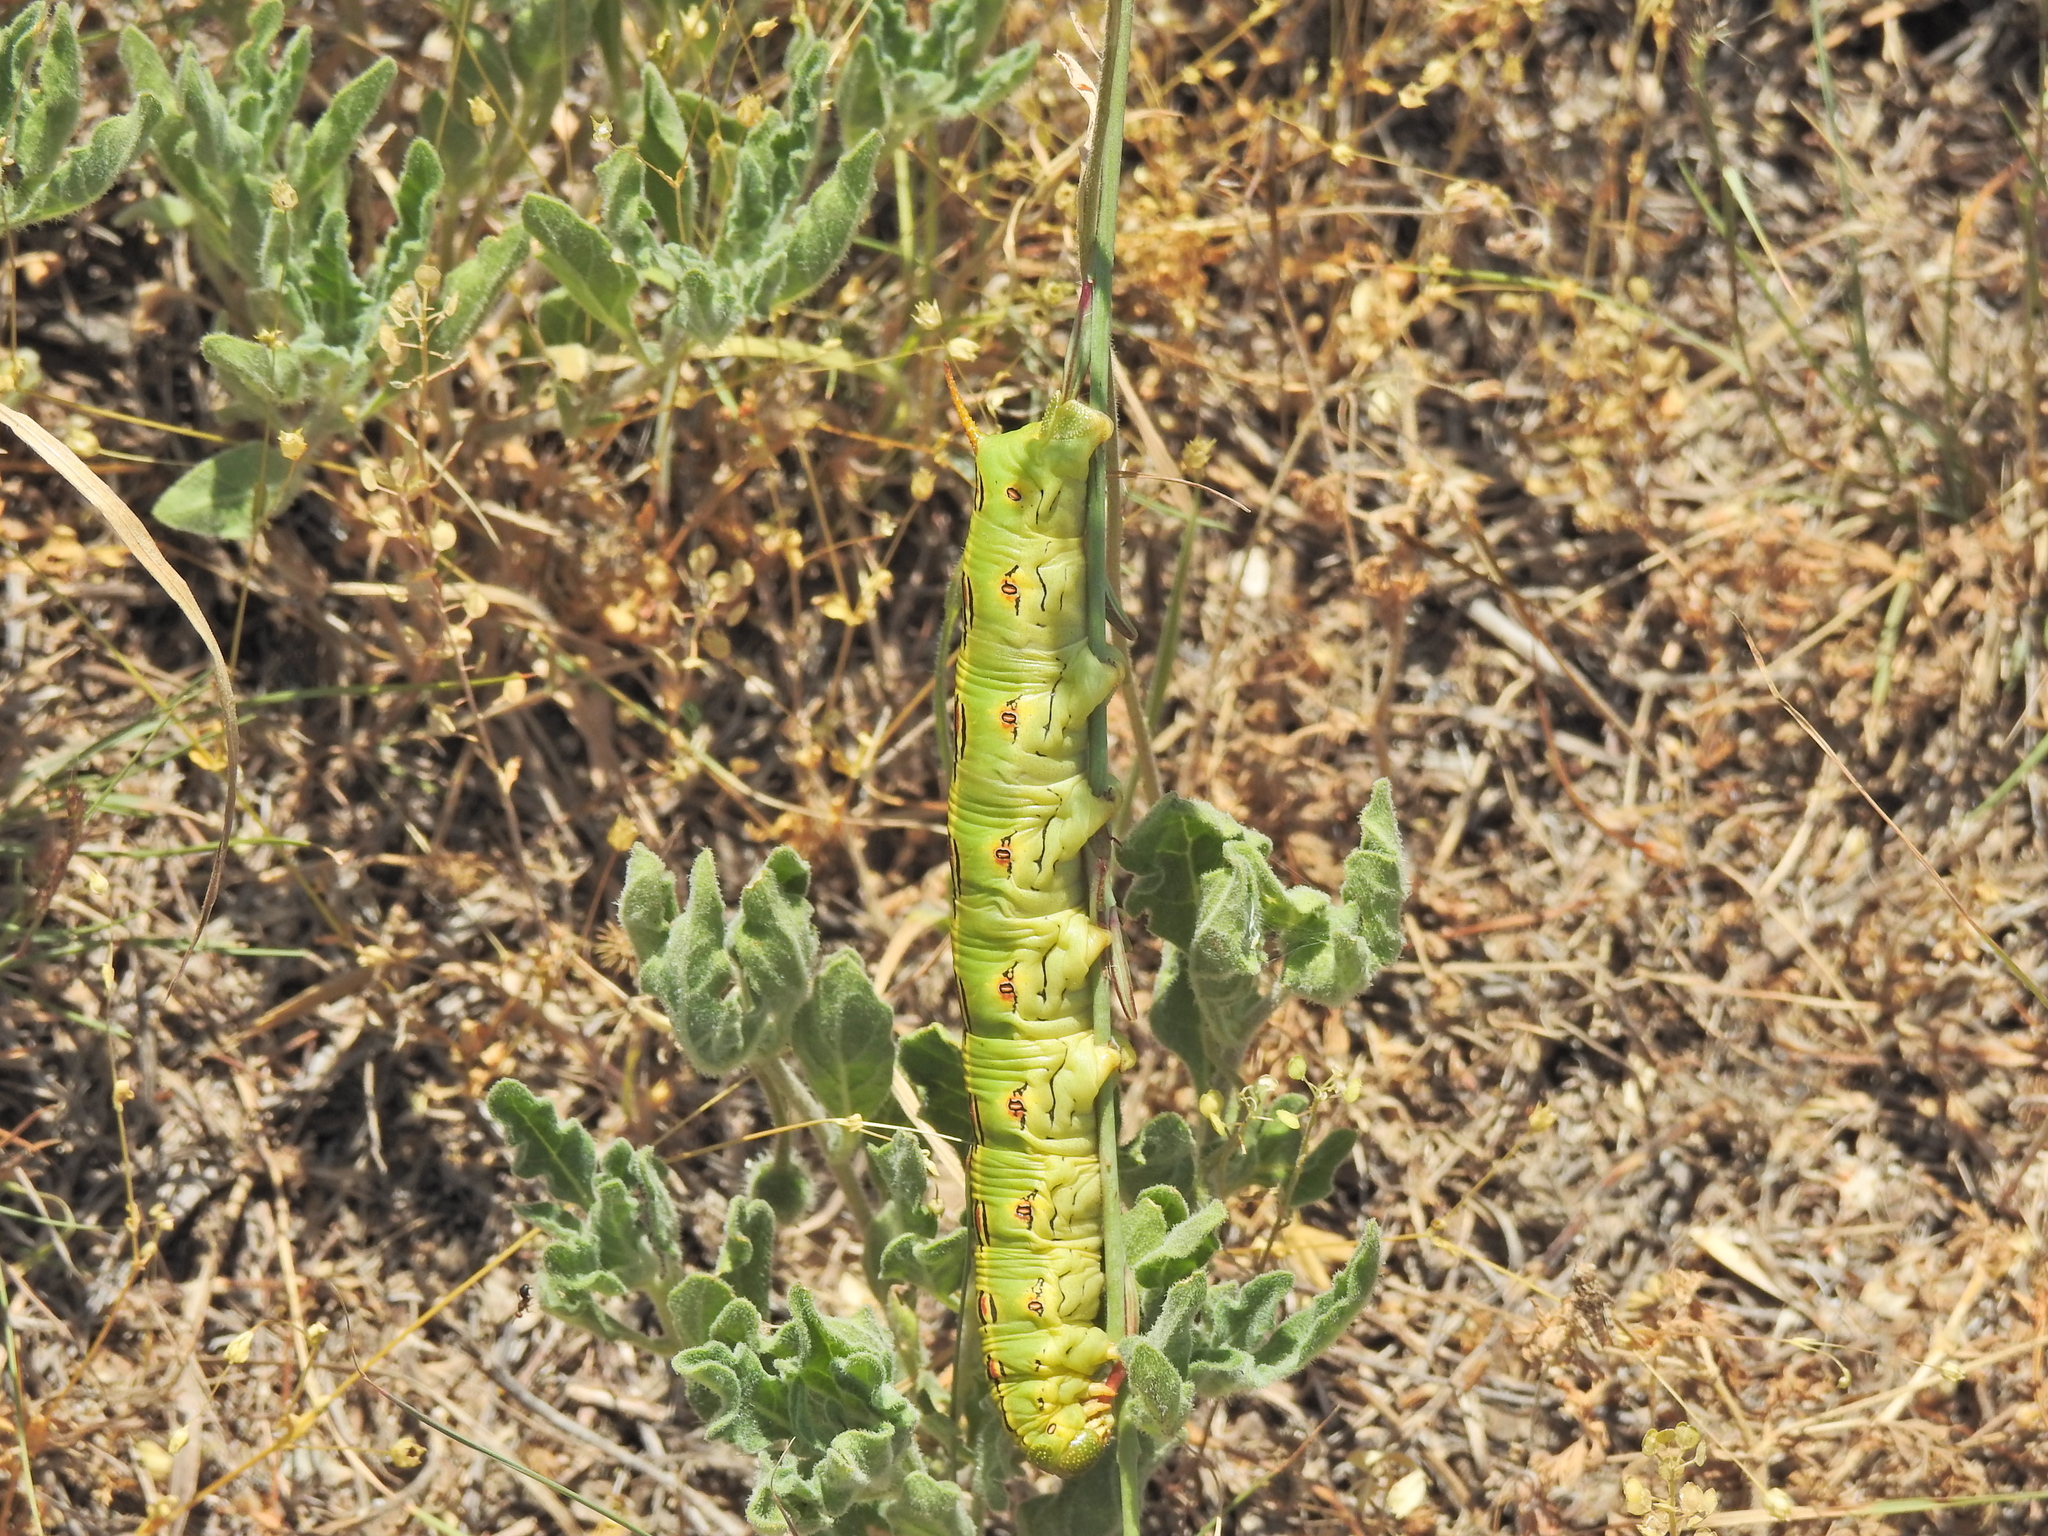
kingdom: Animalia
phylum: Arthropoda
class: Insecta
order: Lepidoptera
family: Sphingidae
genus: Hyles
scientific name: Hyles lineata
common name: White-lined sphinx
